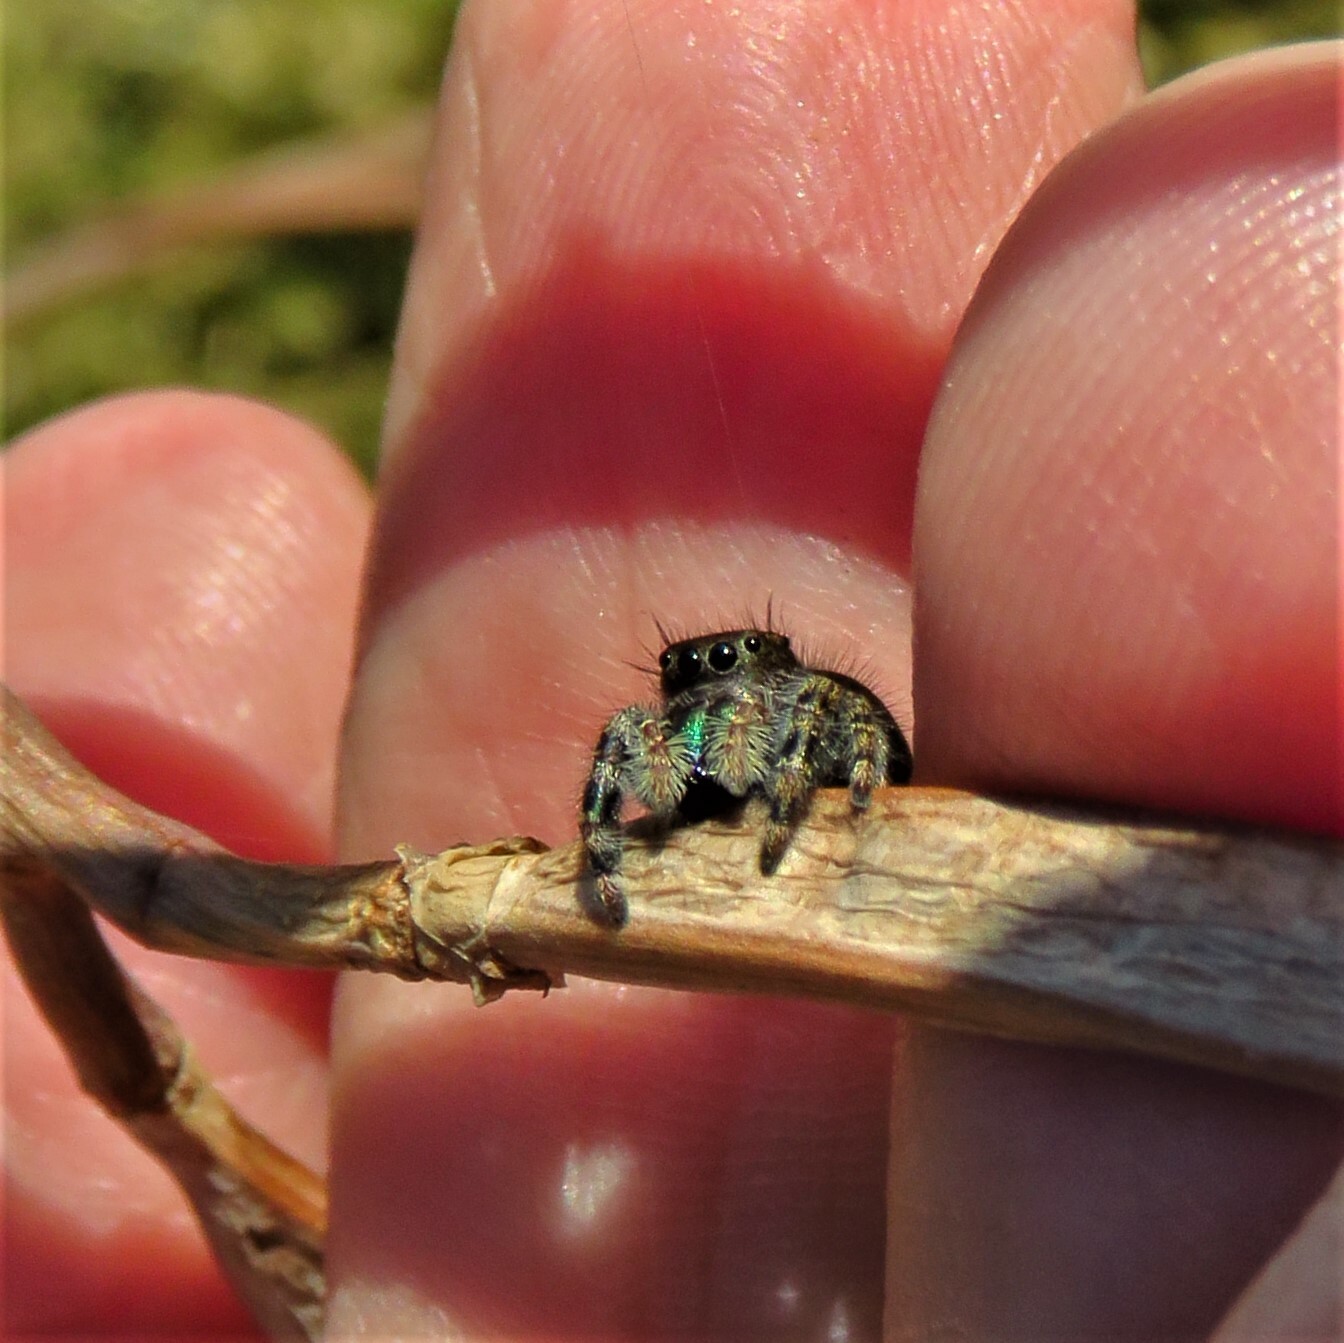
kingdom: Animalia
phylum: Arthropoda
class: Arachnida
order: Araneae
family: Salticidae
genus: Phidippus
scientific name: Phidippus audax
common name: Bold jumper
